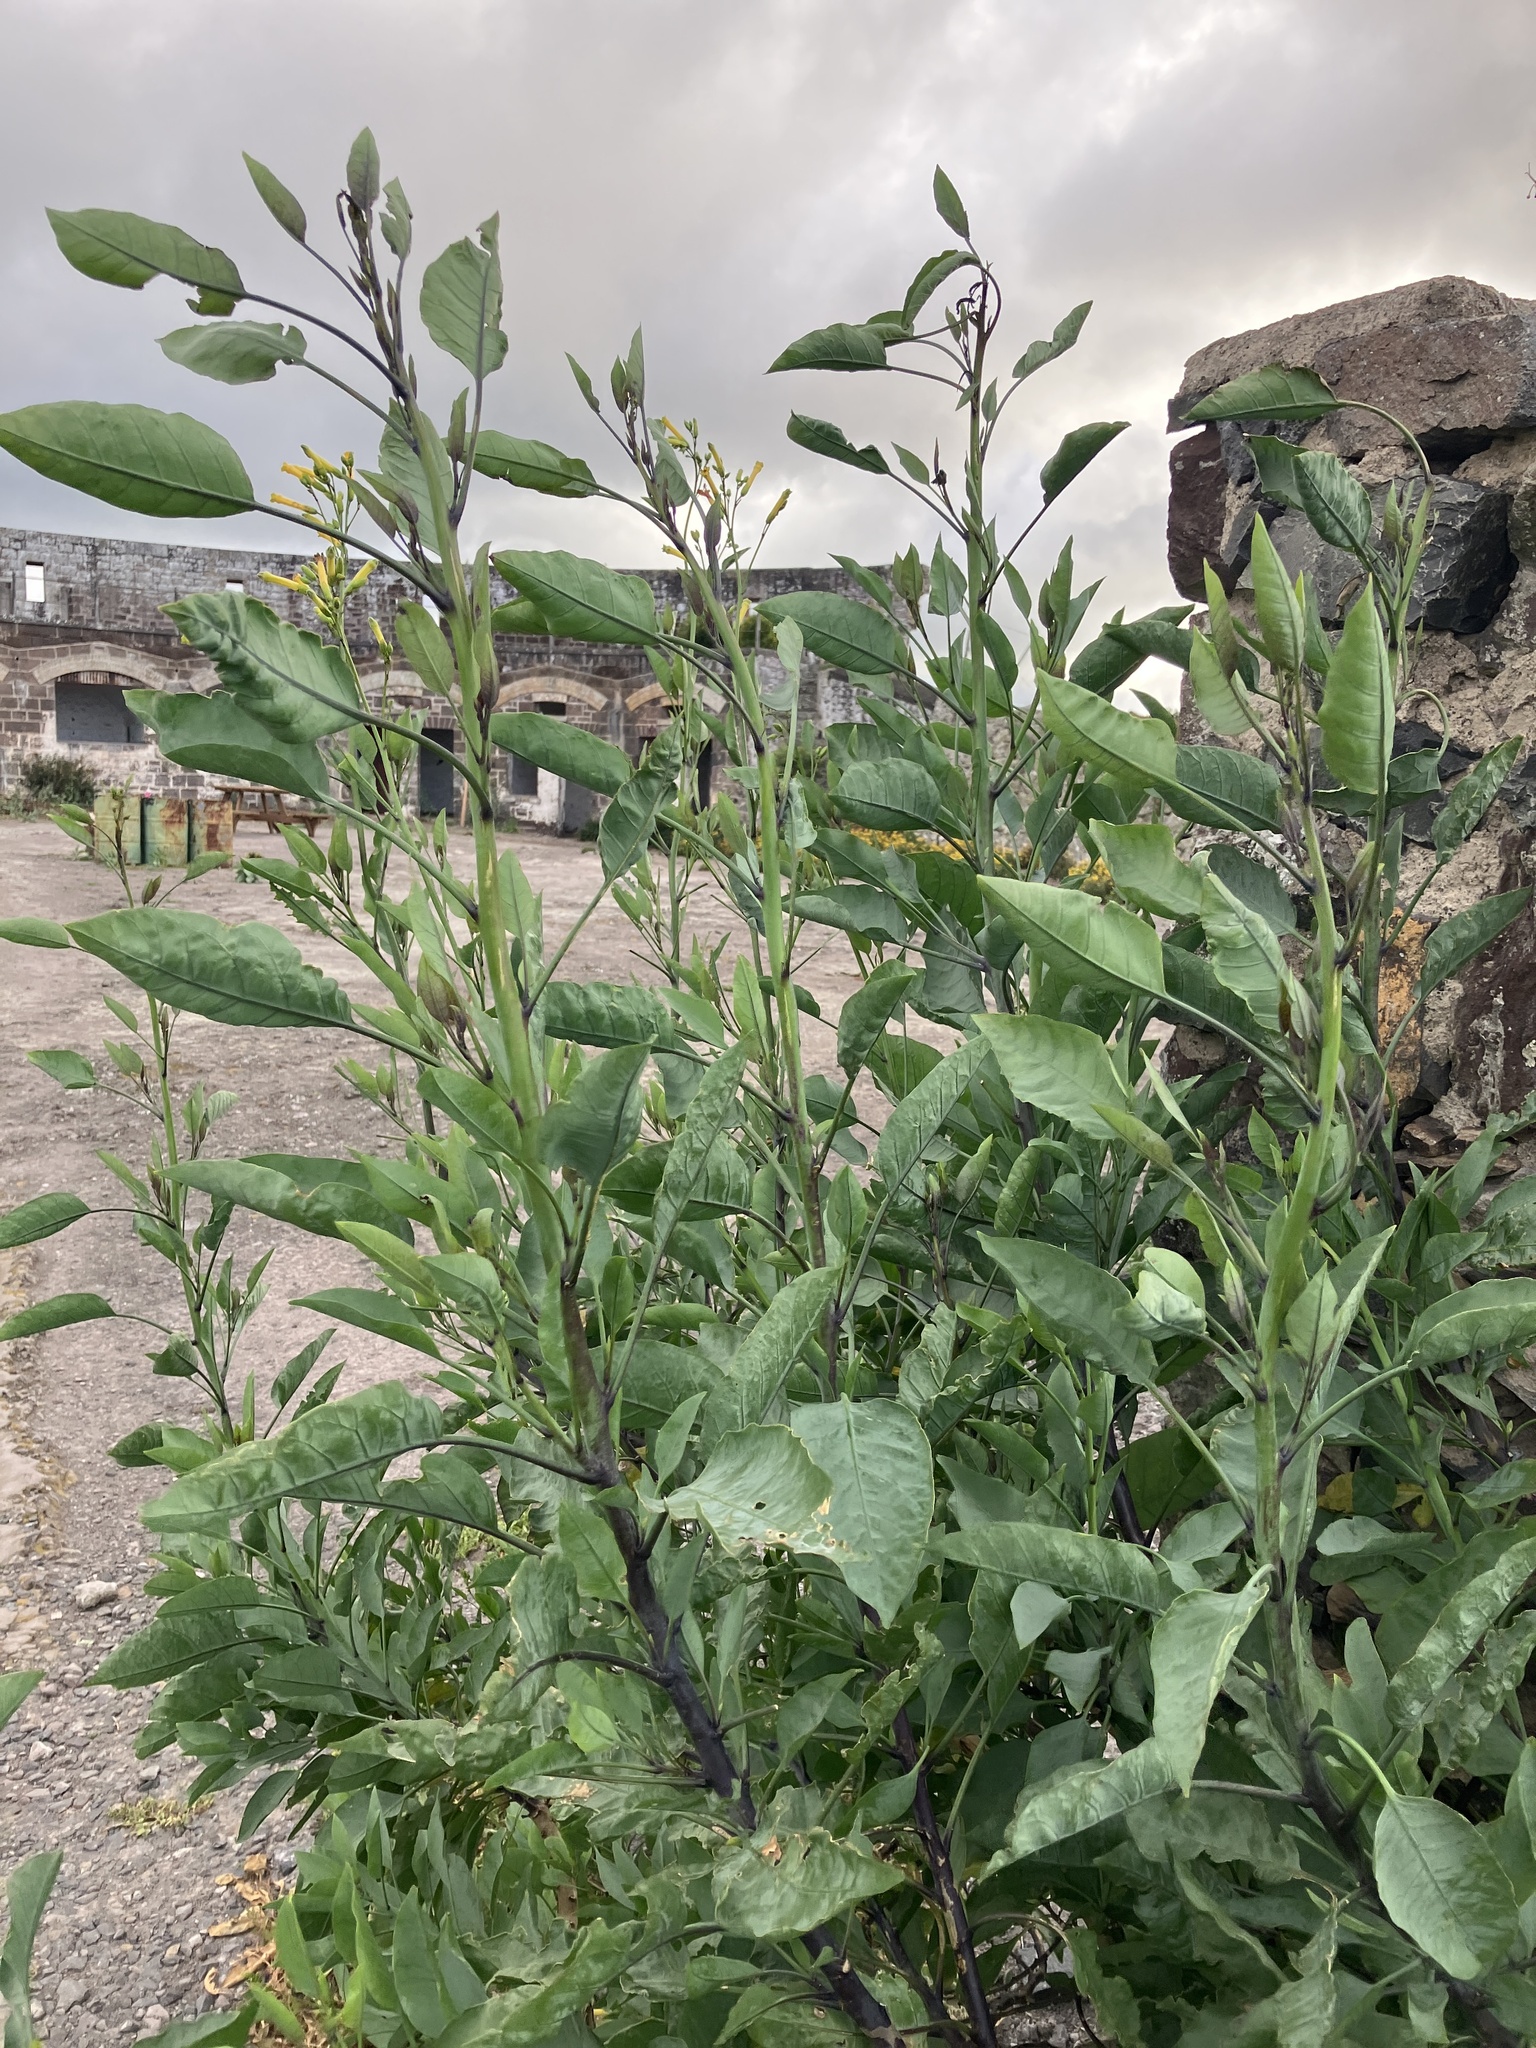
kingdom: Plantae
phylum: Tracheophyta
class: Magnoliopsida
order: Solanales
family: Solanaceae
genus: Nicotiana
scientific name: Nicotiana glauca
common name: Tree tobacco
